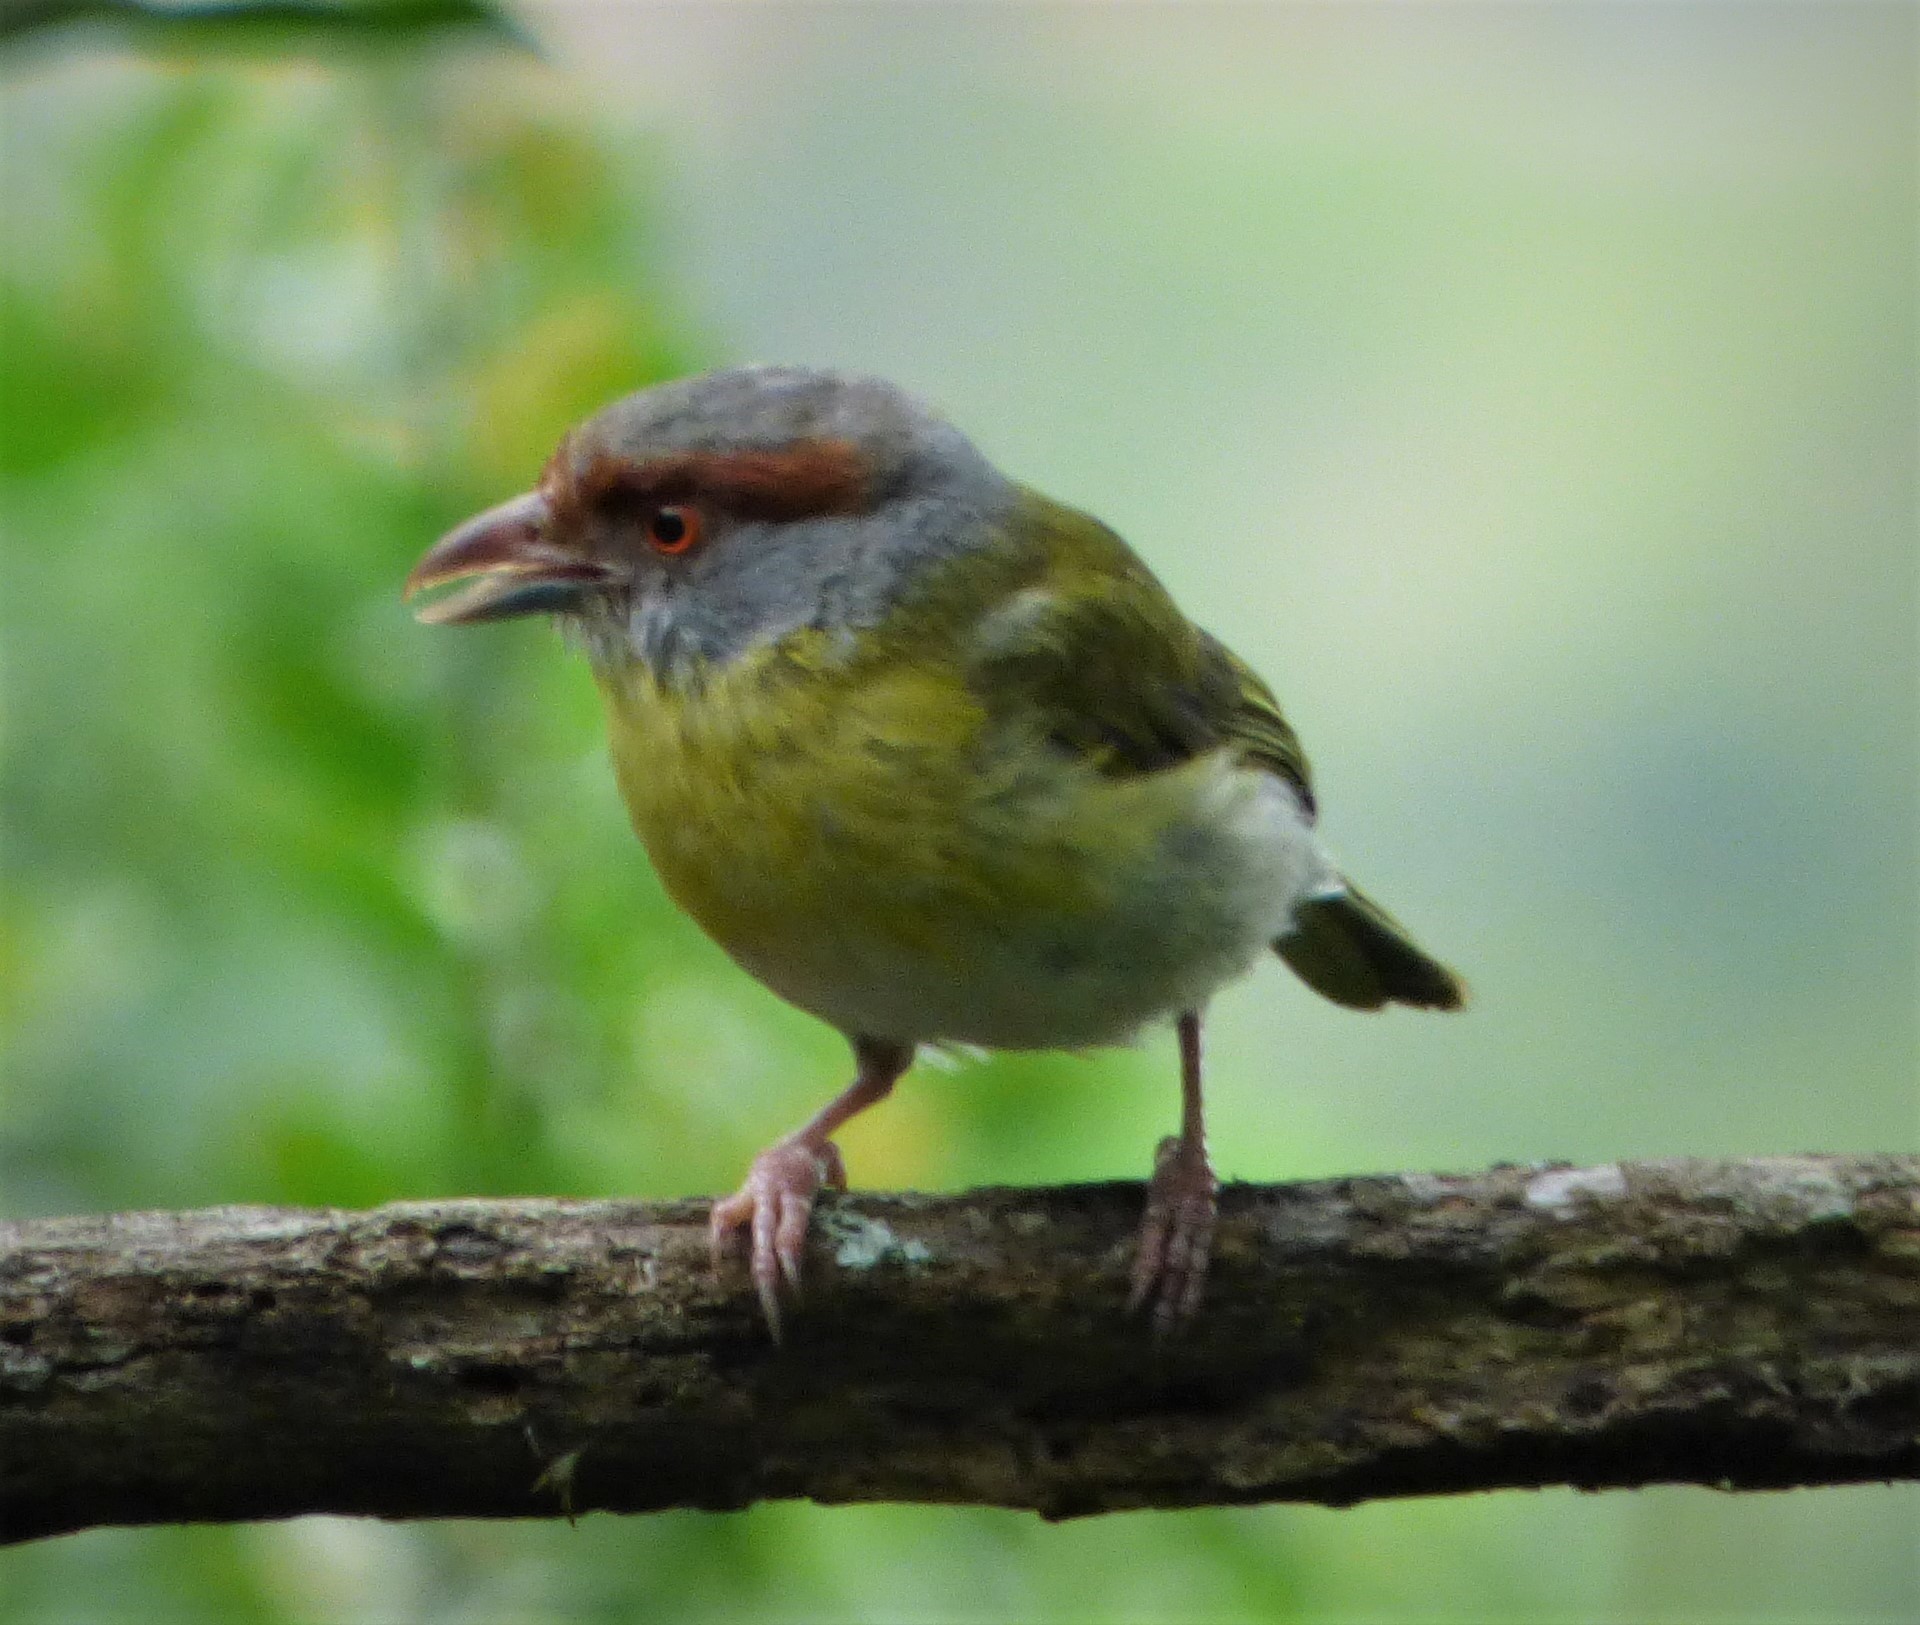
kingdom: Animalia
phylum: Chordata
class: Aves
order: Passeriformes
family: Vireonidae
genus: Cyclarhis
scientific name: Cyclarhis gujanensis
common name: Rufous-browed peppershrike
